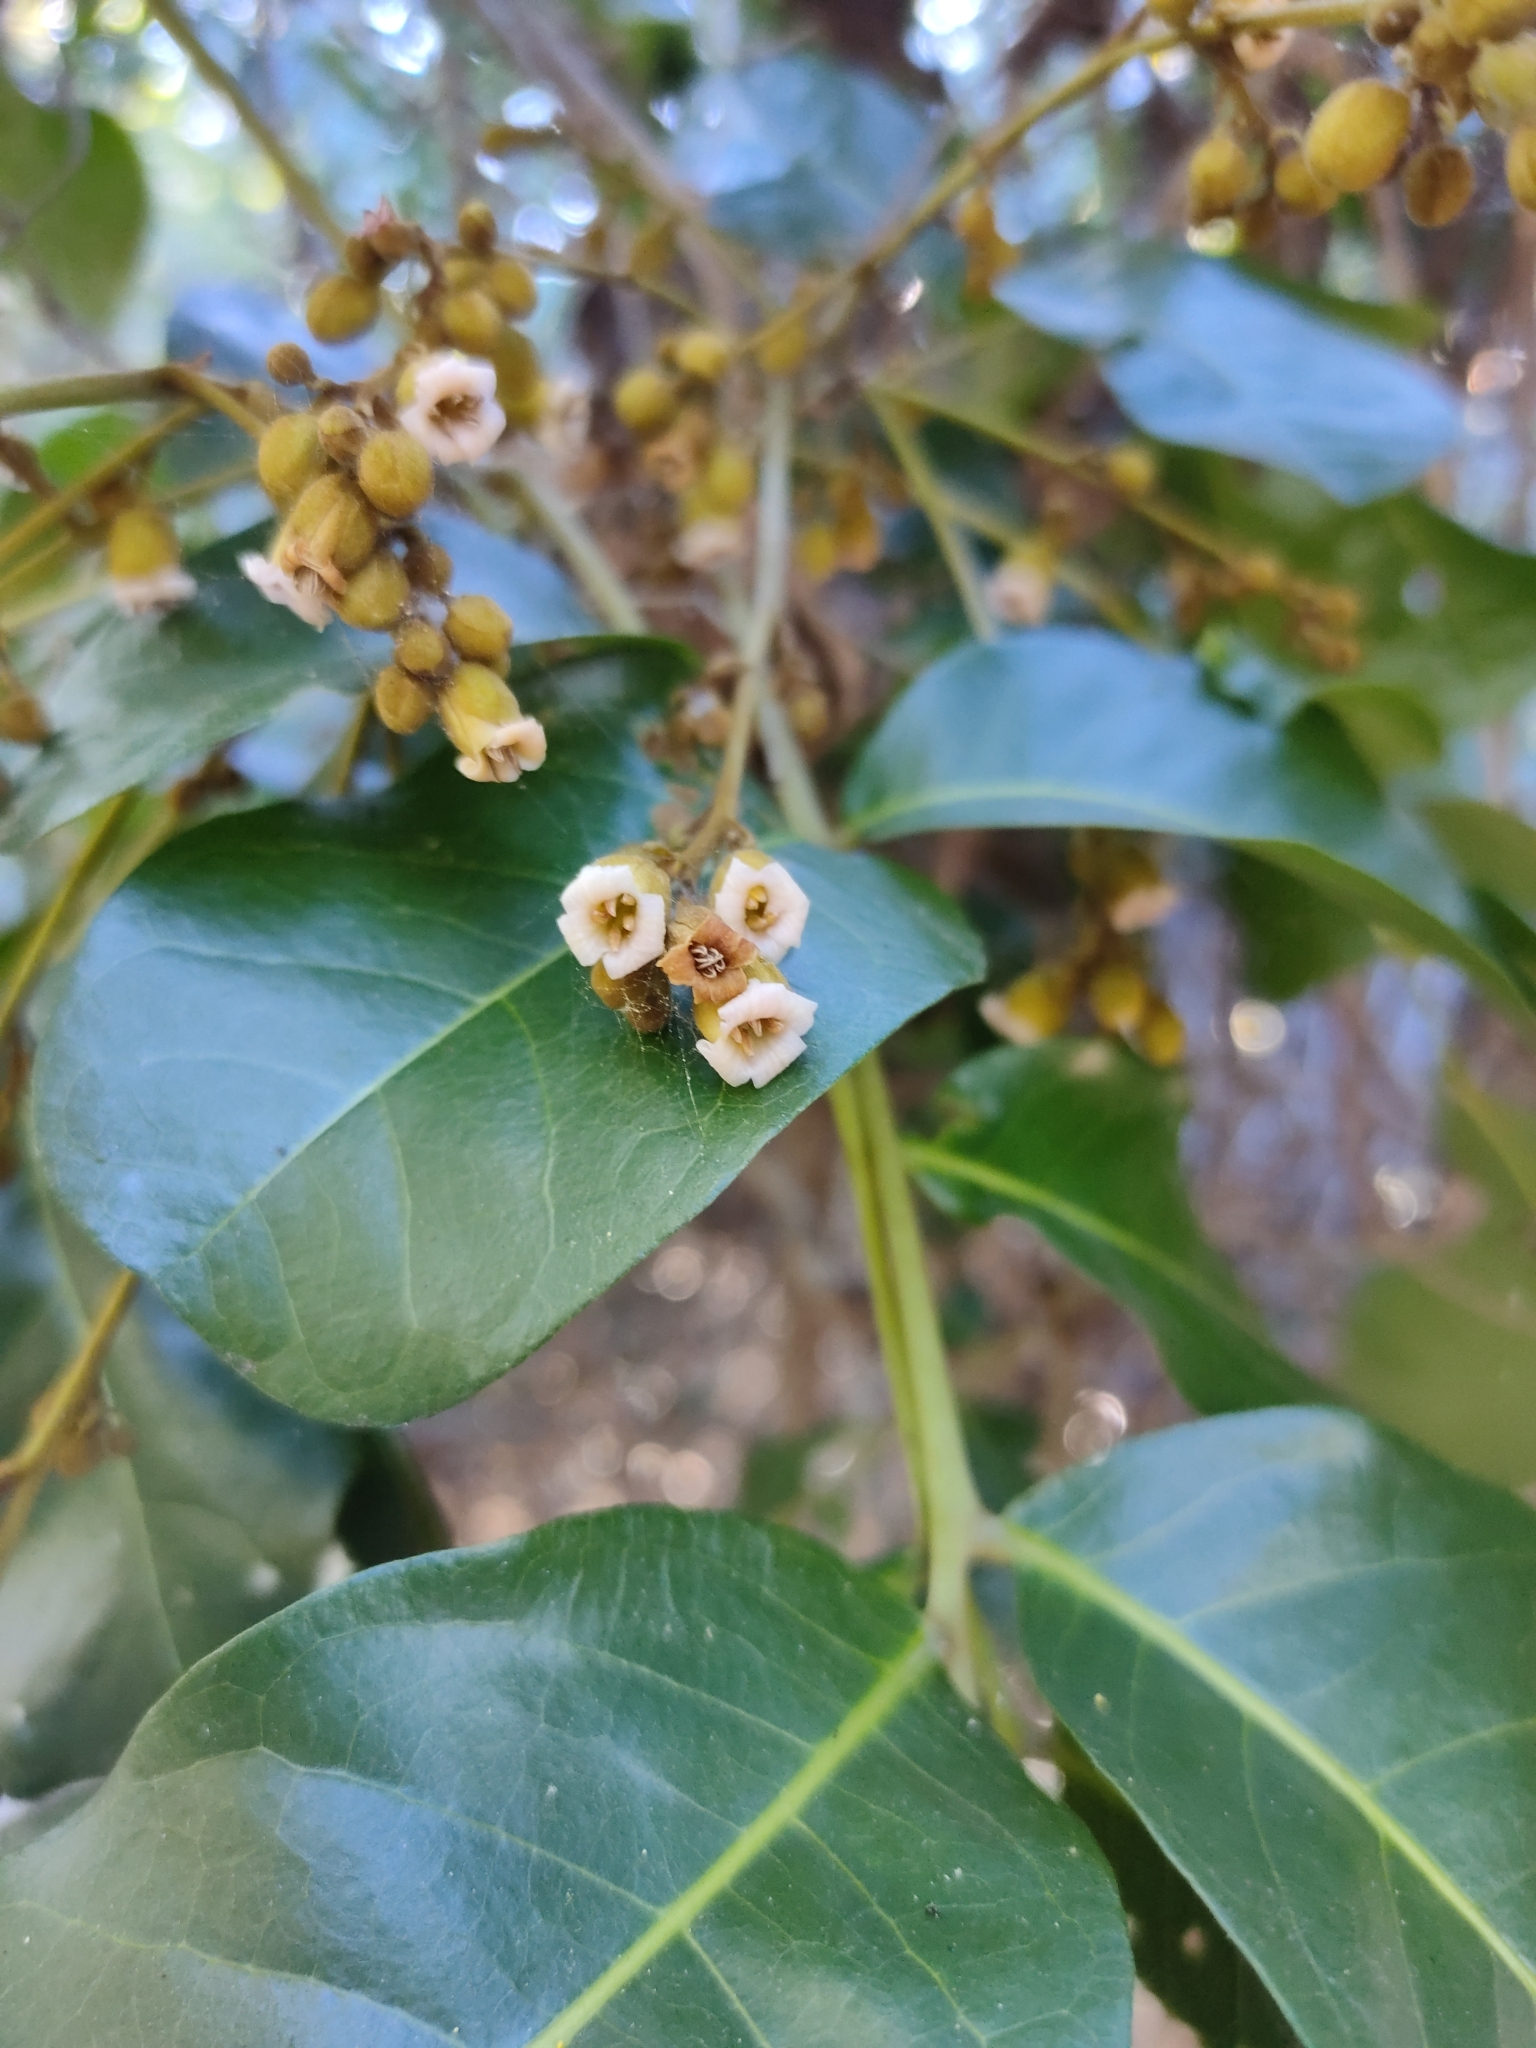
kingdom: Plantae
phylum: Tracheophyta
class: Magnoliopsida
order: Sapindales
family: Sapindaceae
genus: Cupaniopsis
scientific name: Cupaniopsis anacardioides
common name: Carrotwood
